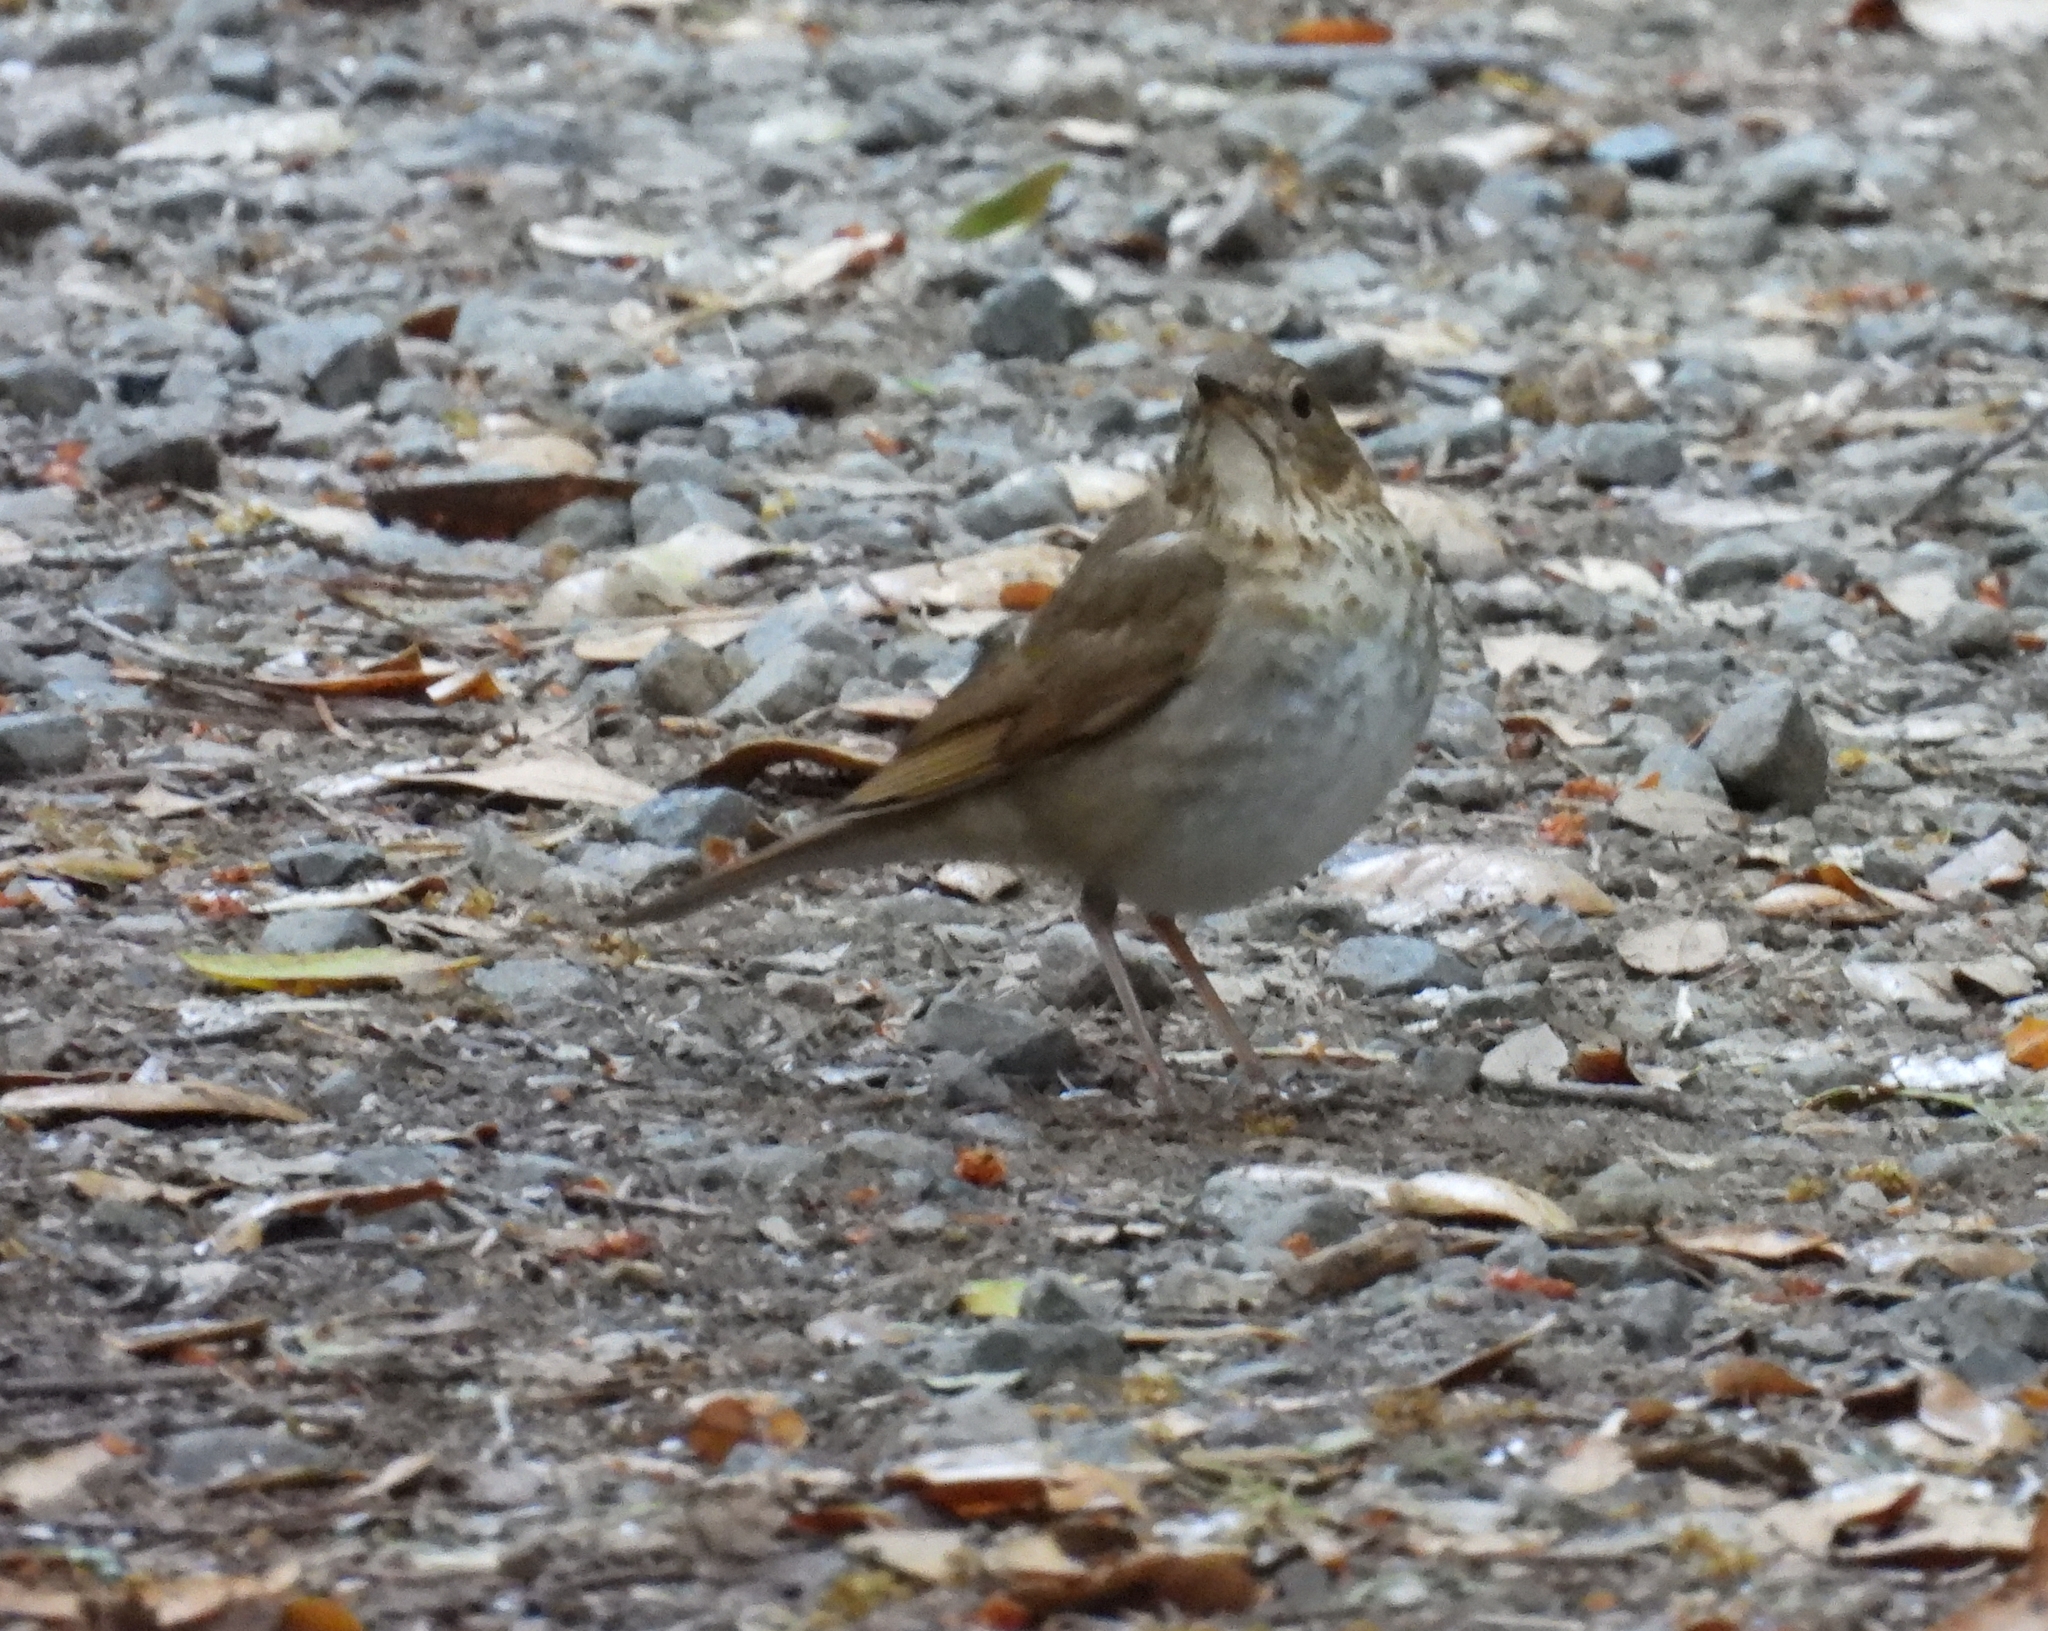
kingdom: Animalia
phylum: Chordata
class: Aves
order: Passeriformes
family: Turdidae
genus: Catharus
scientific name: Catharus ustulatus
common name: Swainson's thrush
